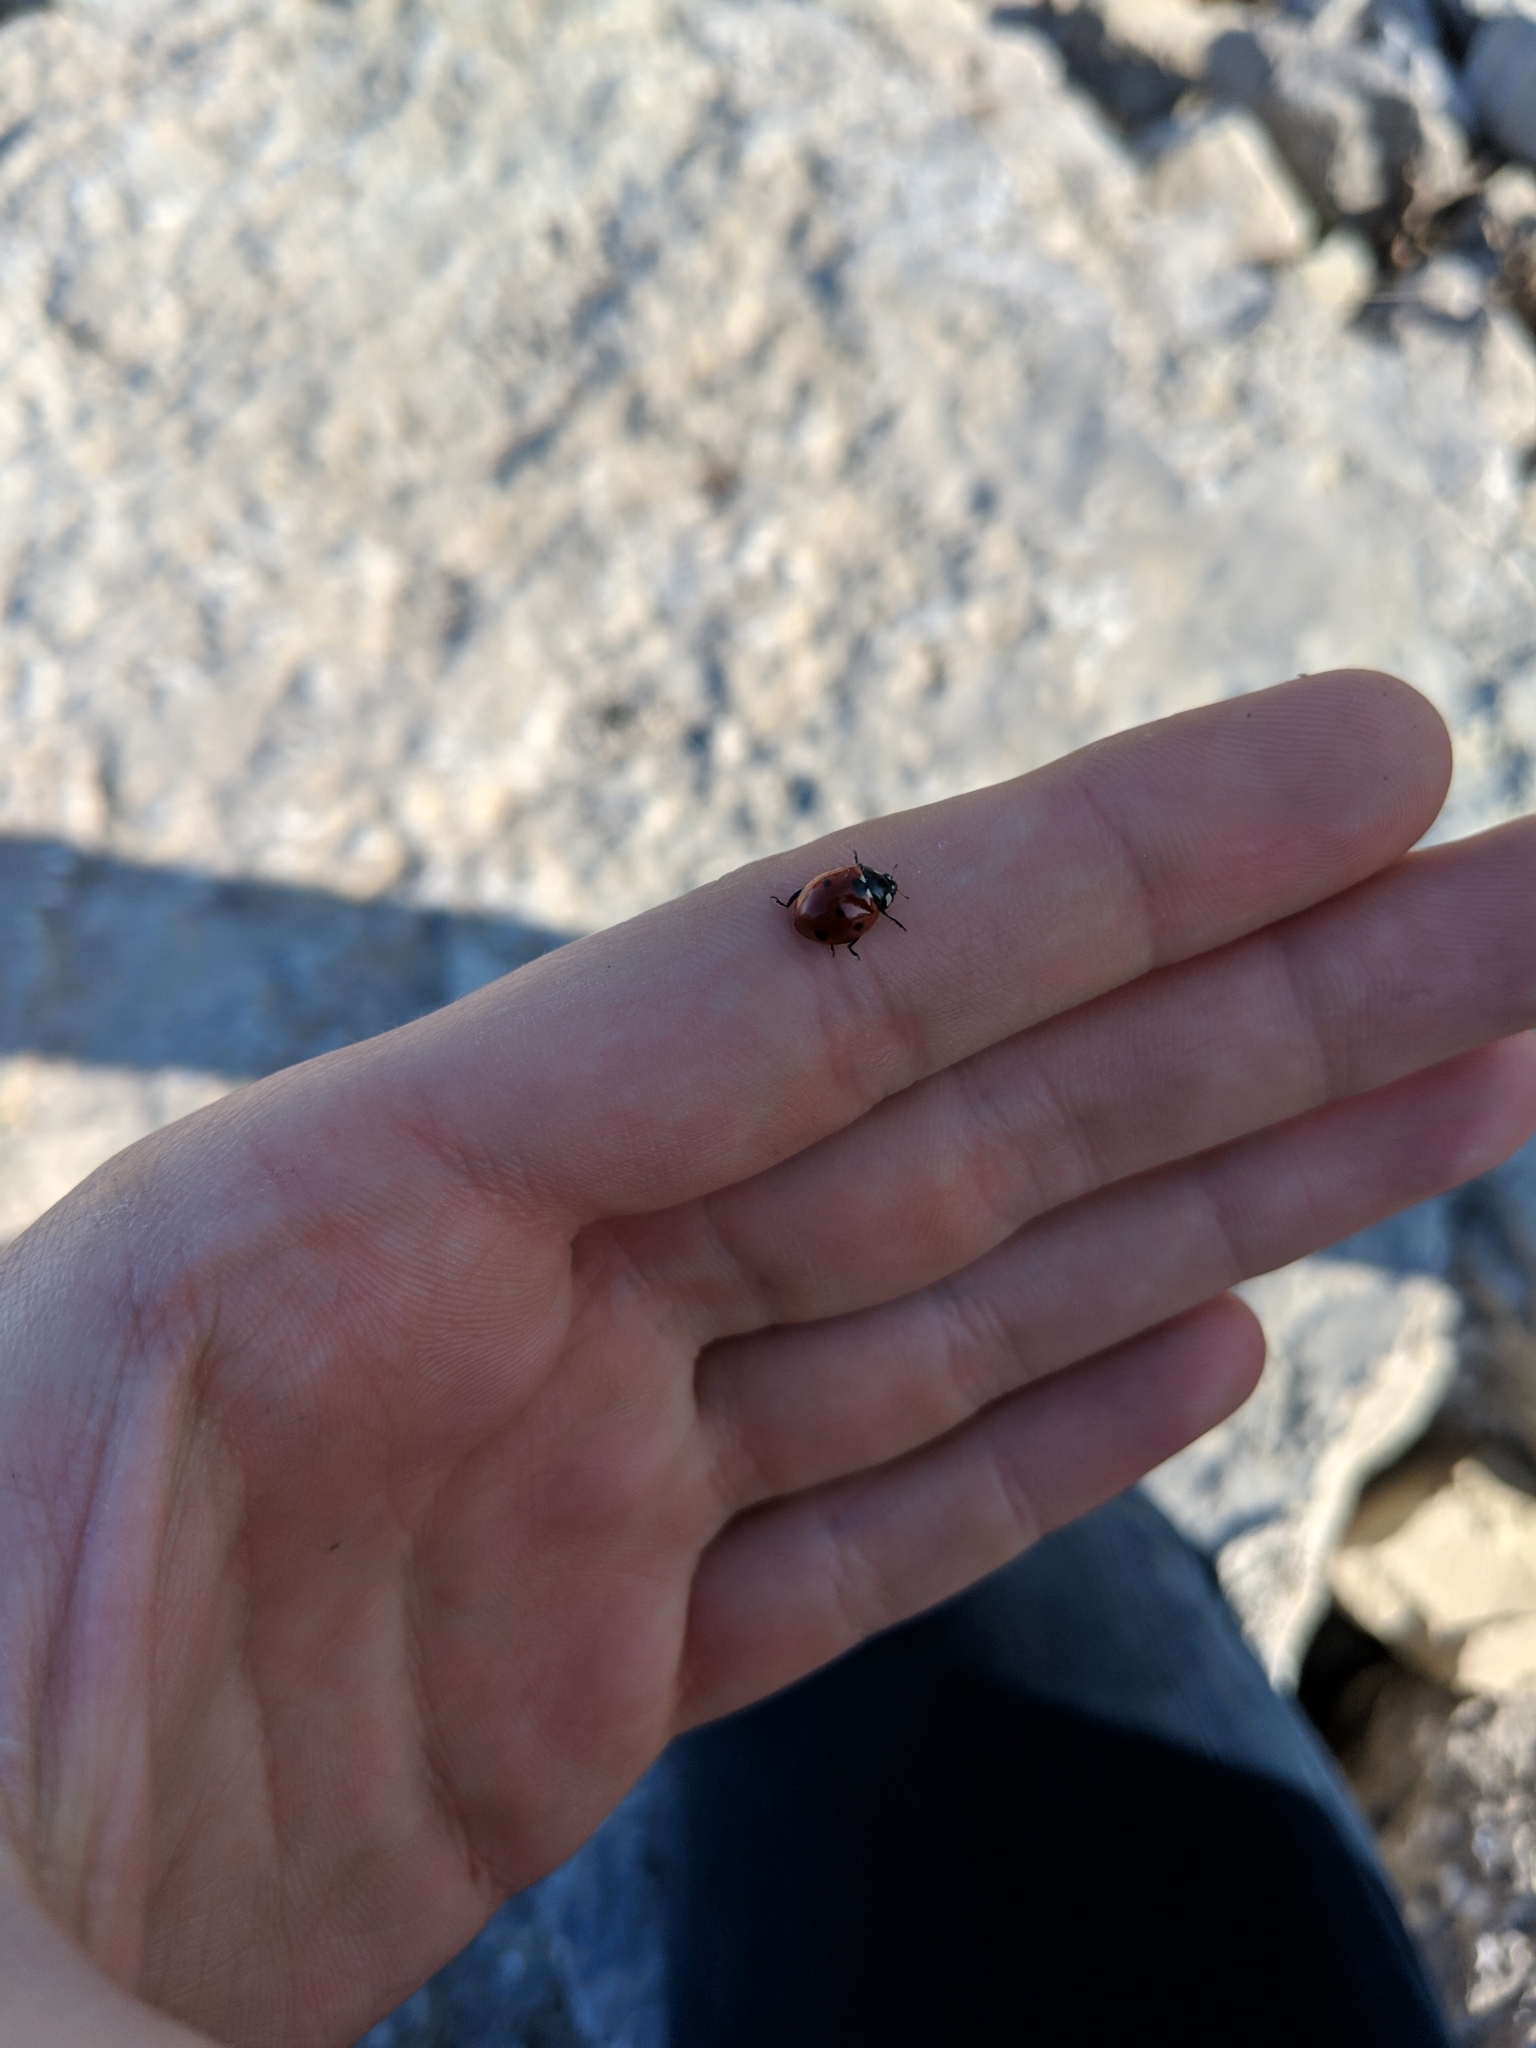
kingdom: Animalia
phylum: Arthropoda
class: Insecta
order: Coleoptera
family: Coccinellidae
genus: Coccinella
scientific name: Coccinella septempunctata
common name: Sevenspotted lady beetle
